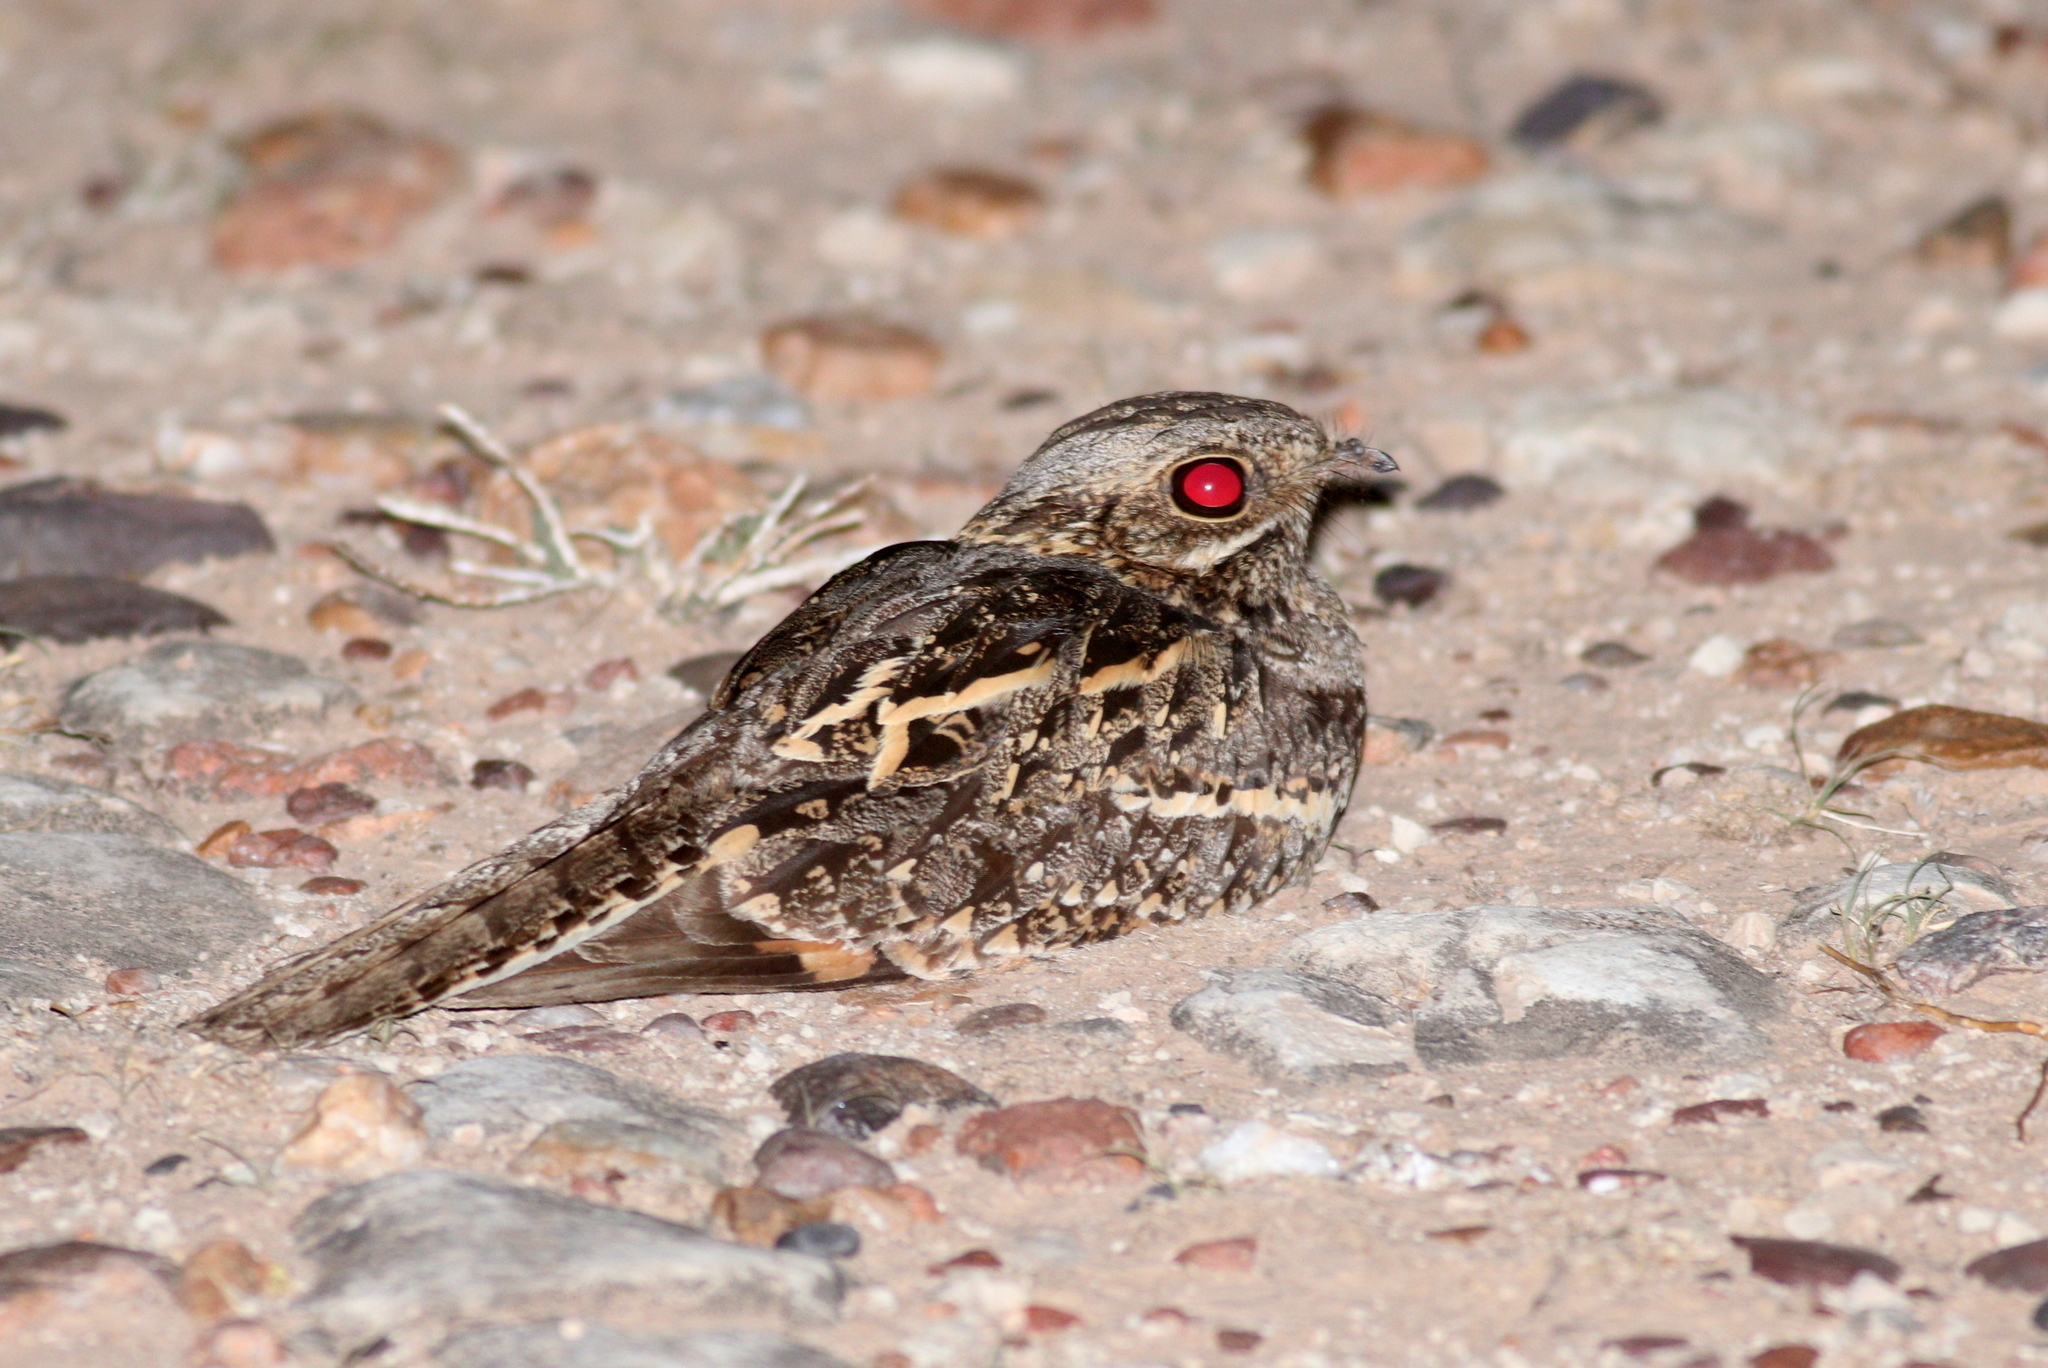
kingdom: Animalia
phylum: Chordata
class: Aves
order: Caprimulgiformes
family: Caprimulgidae
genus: Caprimulgus
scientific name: Caprimulgus fossii
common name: Square-tailed nightjar
